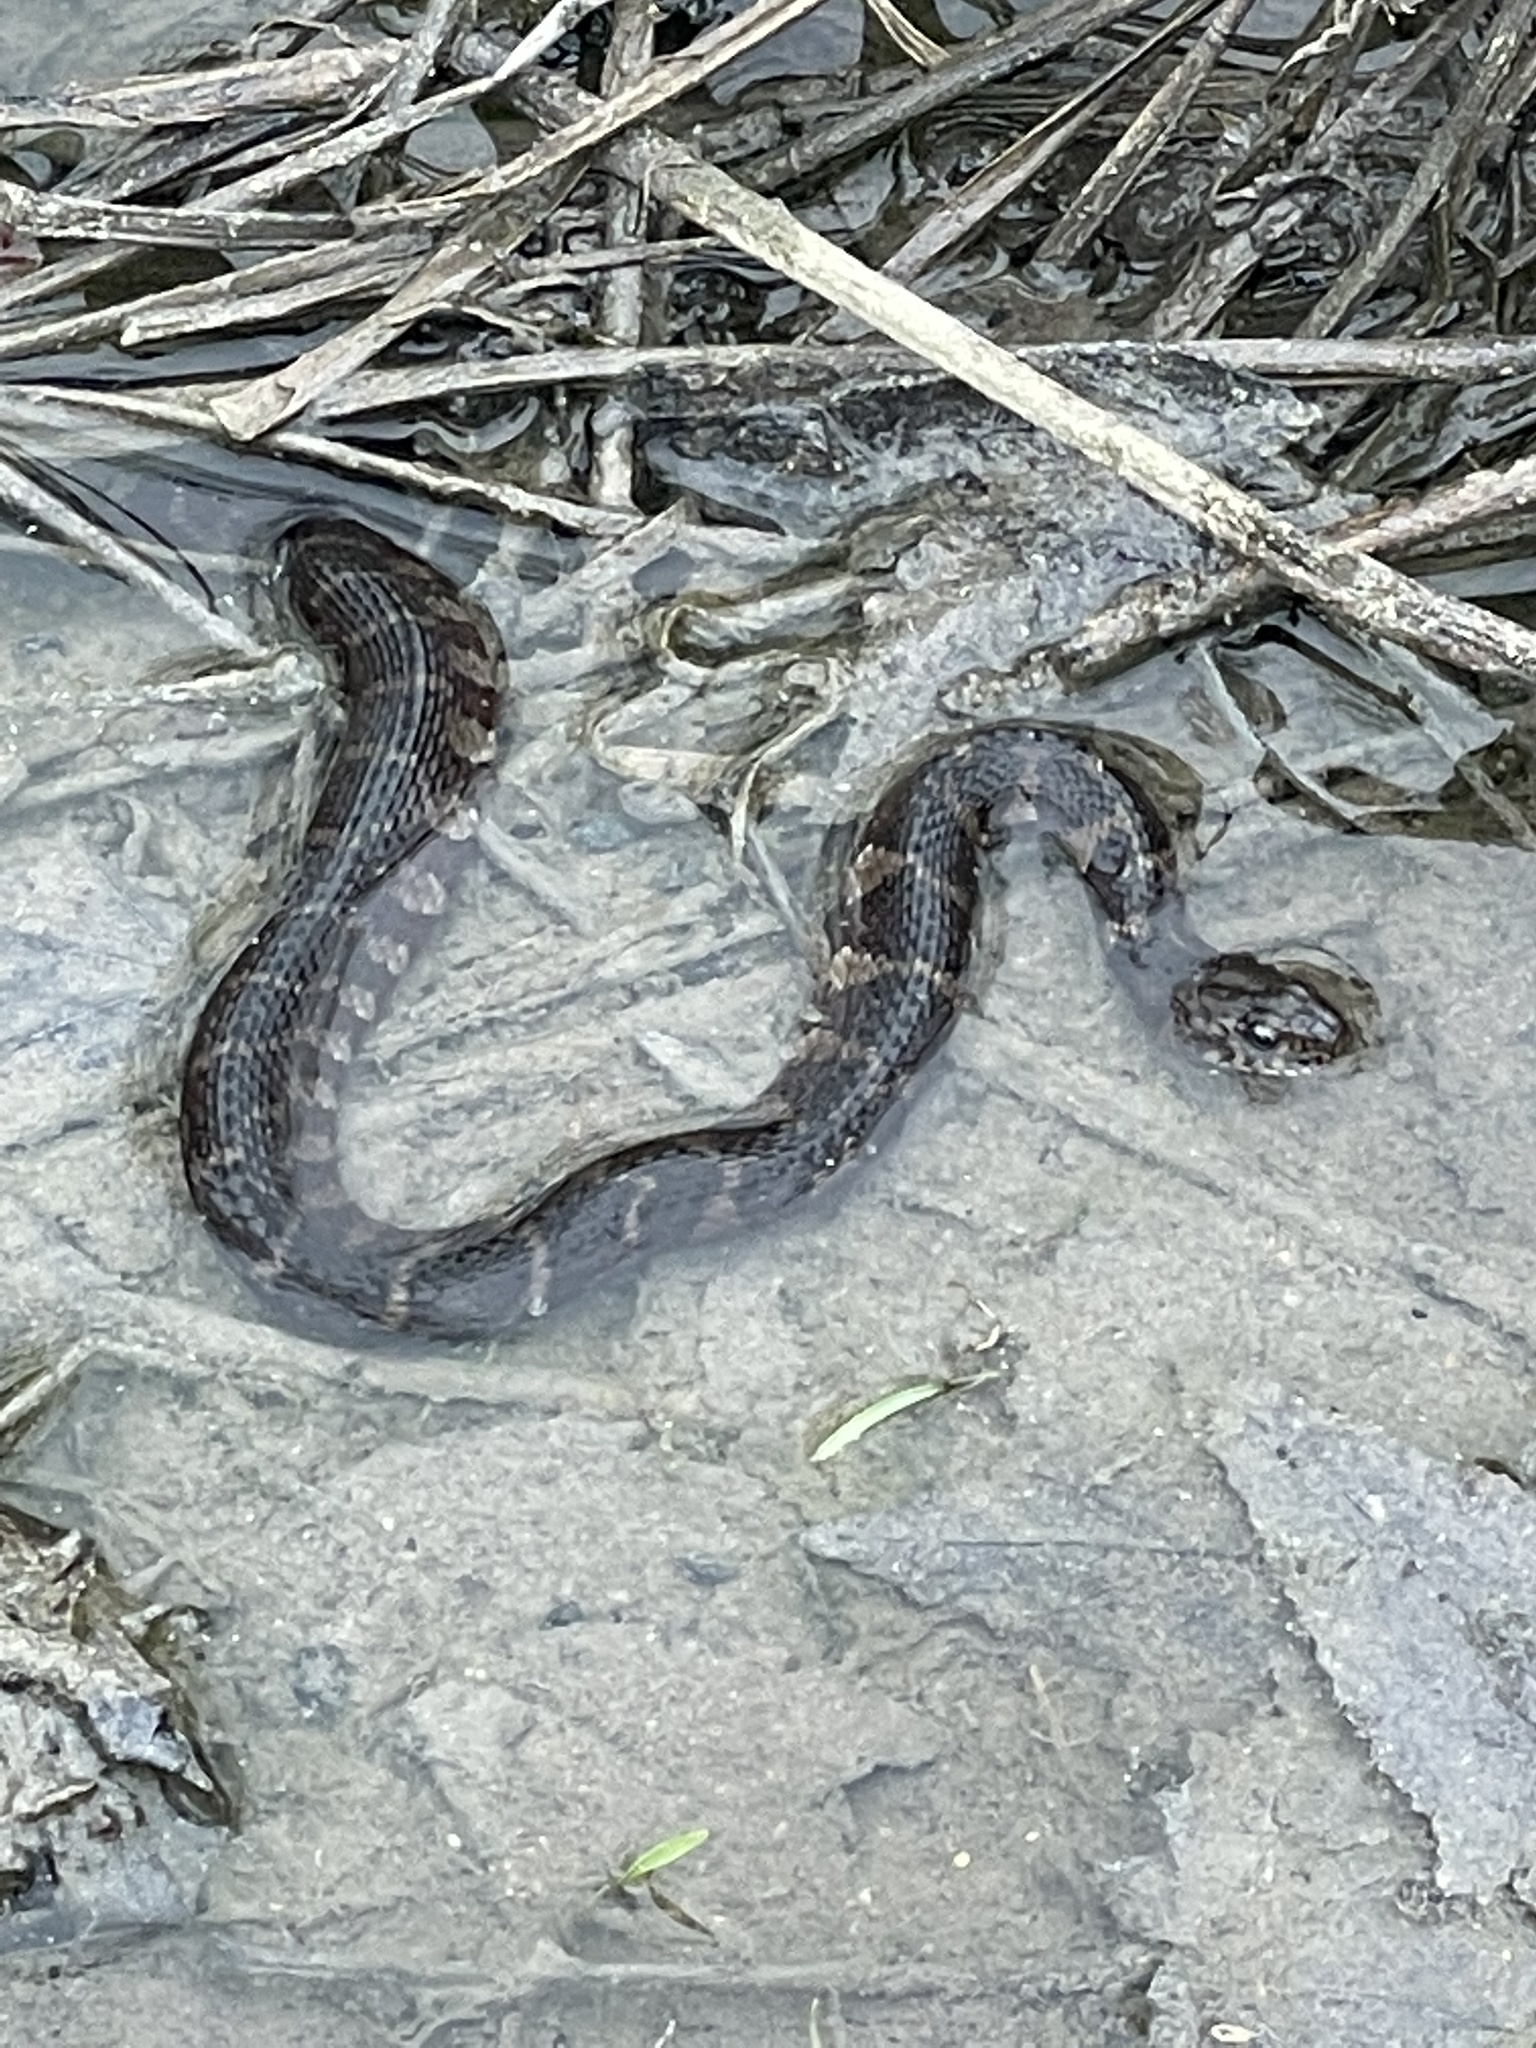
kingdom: Animalia
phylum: Chordata
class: Squamata
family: Colubridae
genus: Nerodia
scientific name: Nerodia sipedon
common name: Northern water snake
